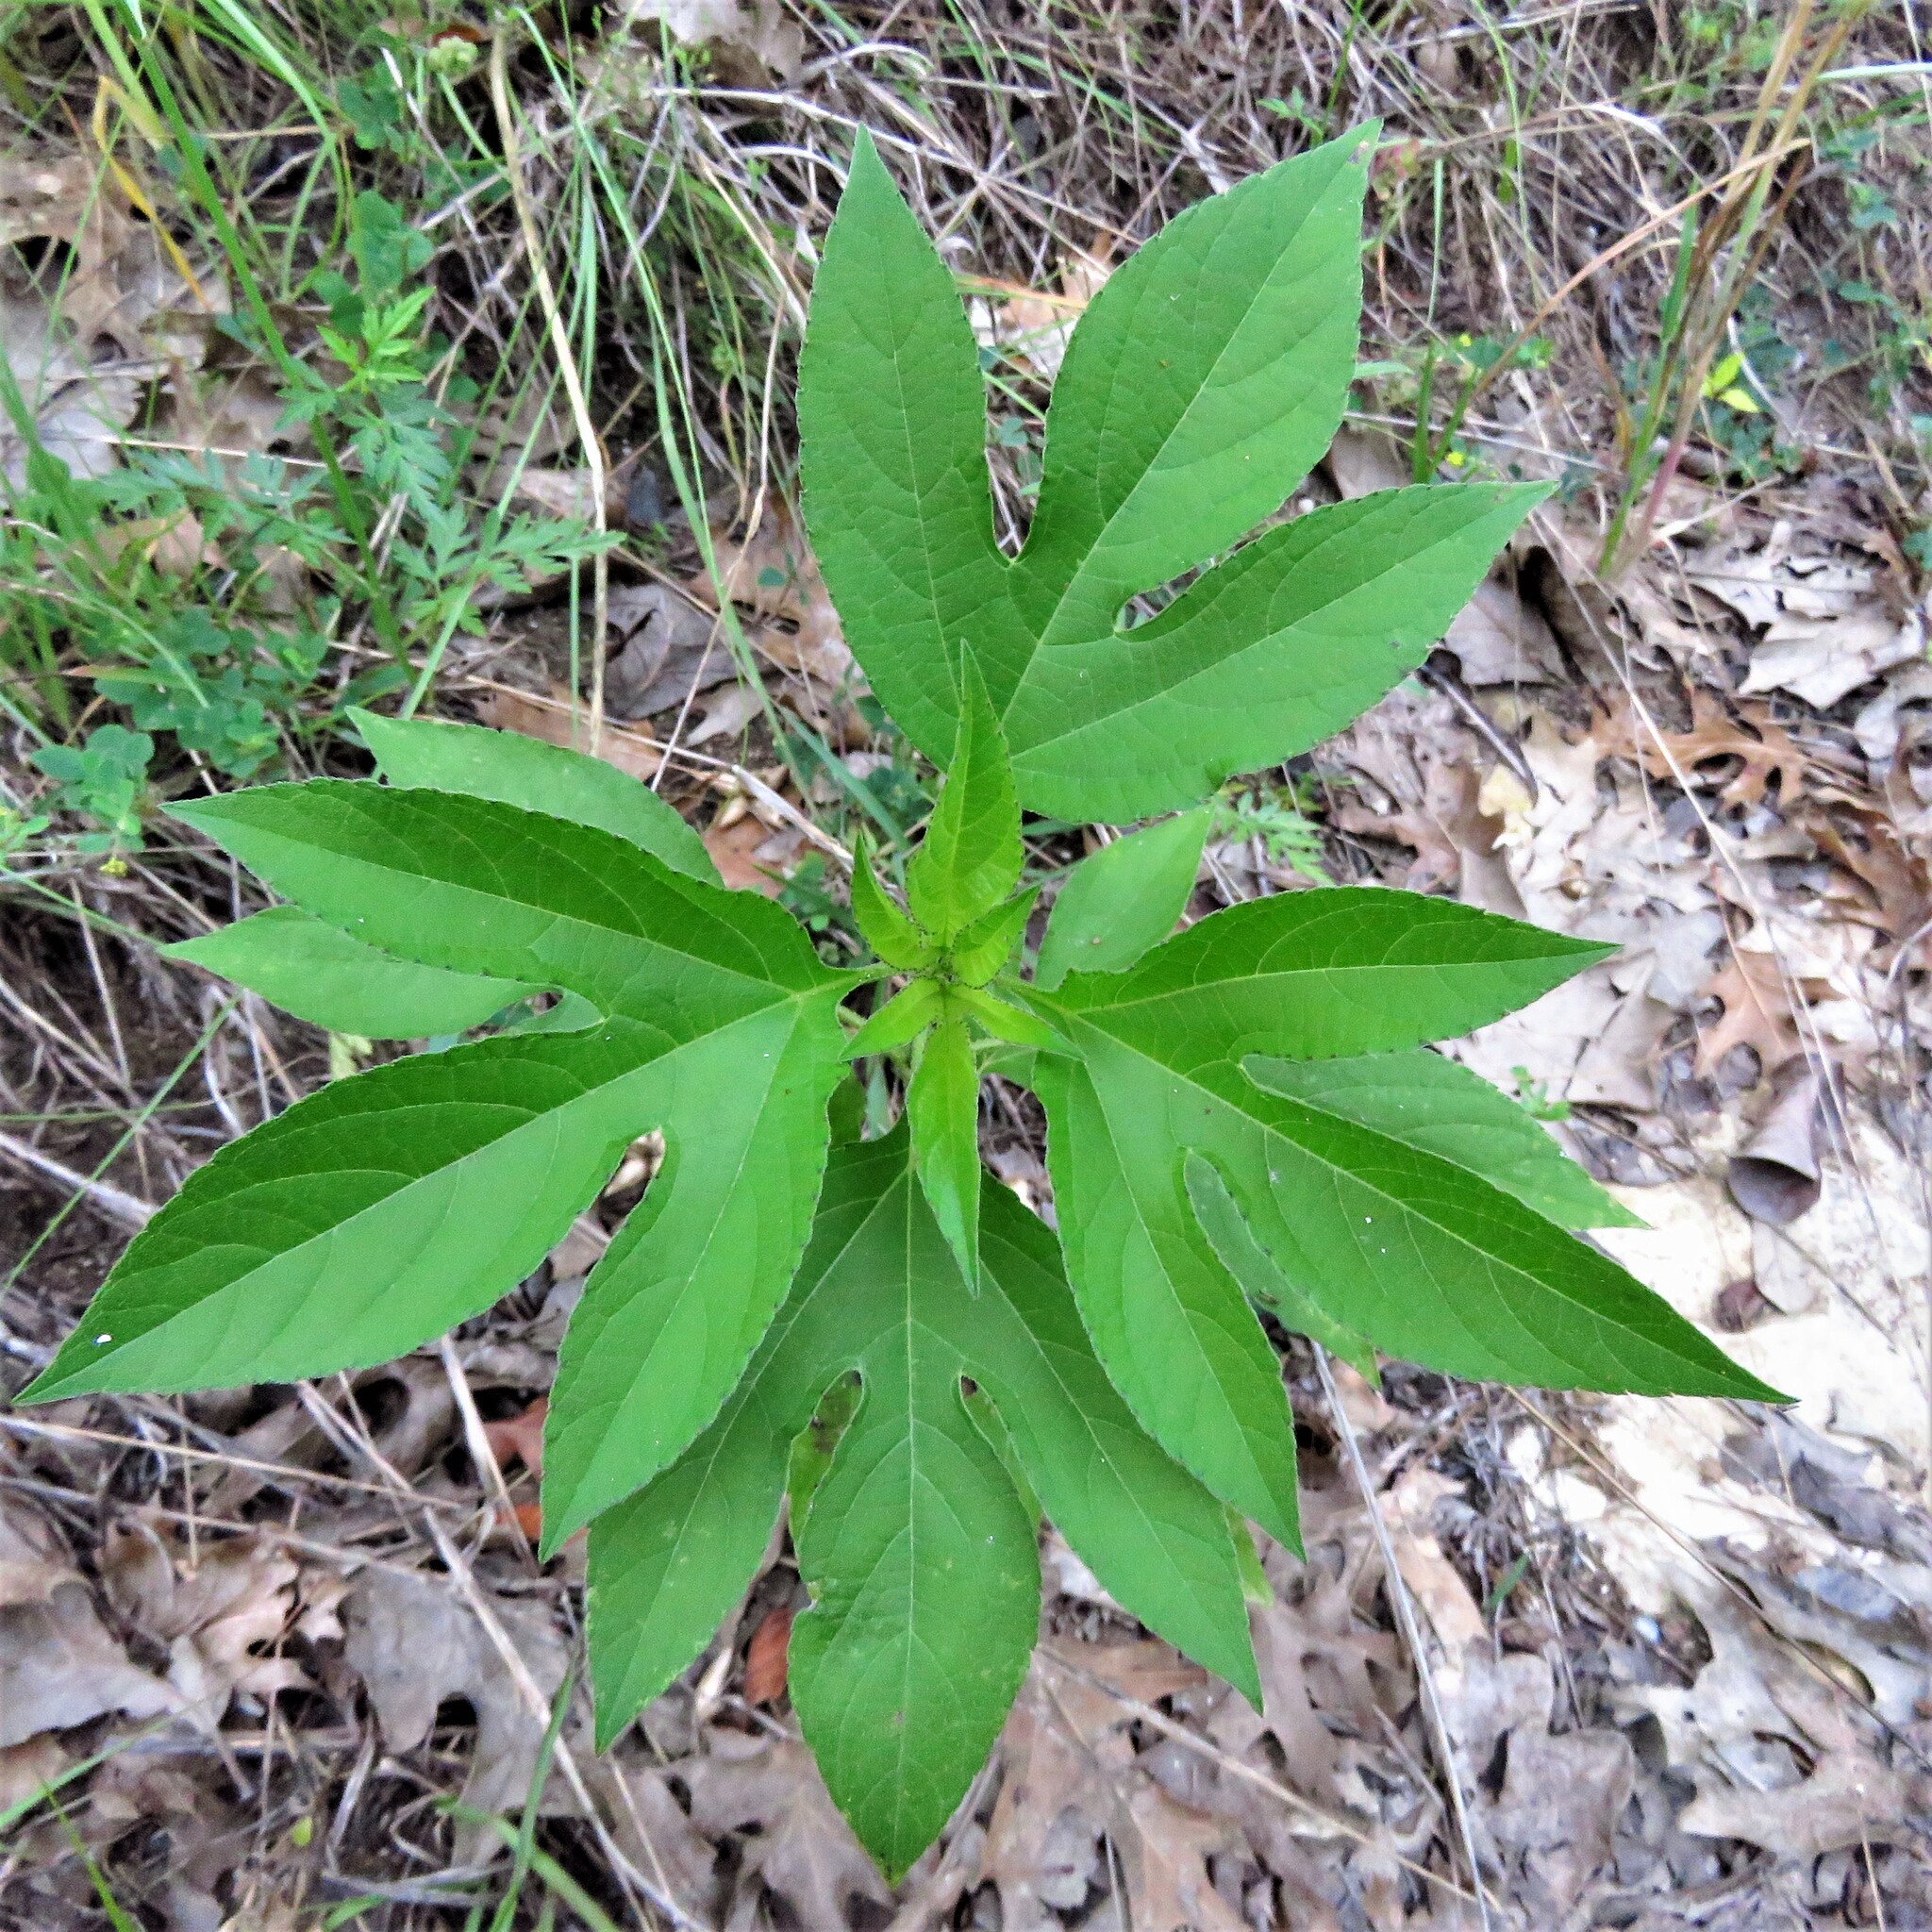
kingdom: Plantae
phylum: Tracheophyta
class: Magnoliopsida
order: Asterales
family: Asteraceae
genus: Ambrosia
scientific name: Ambrosia trifida
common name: Giant ragweed
